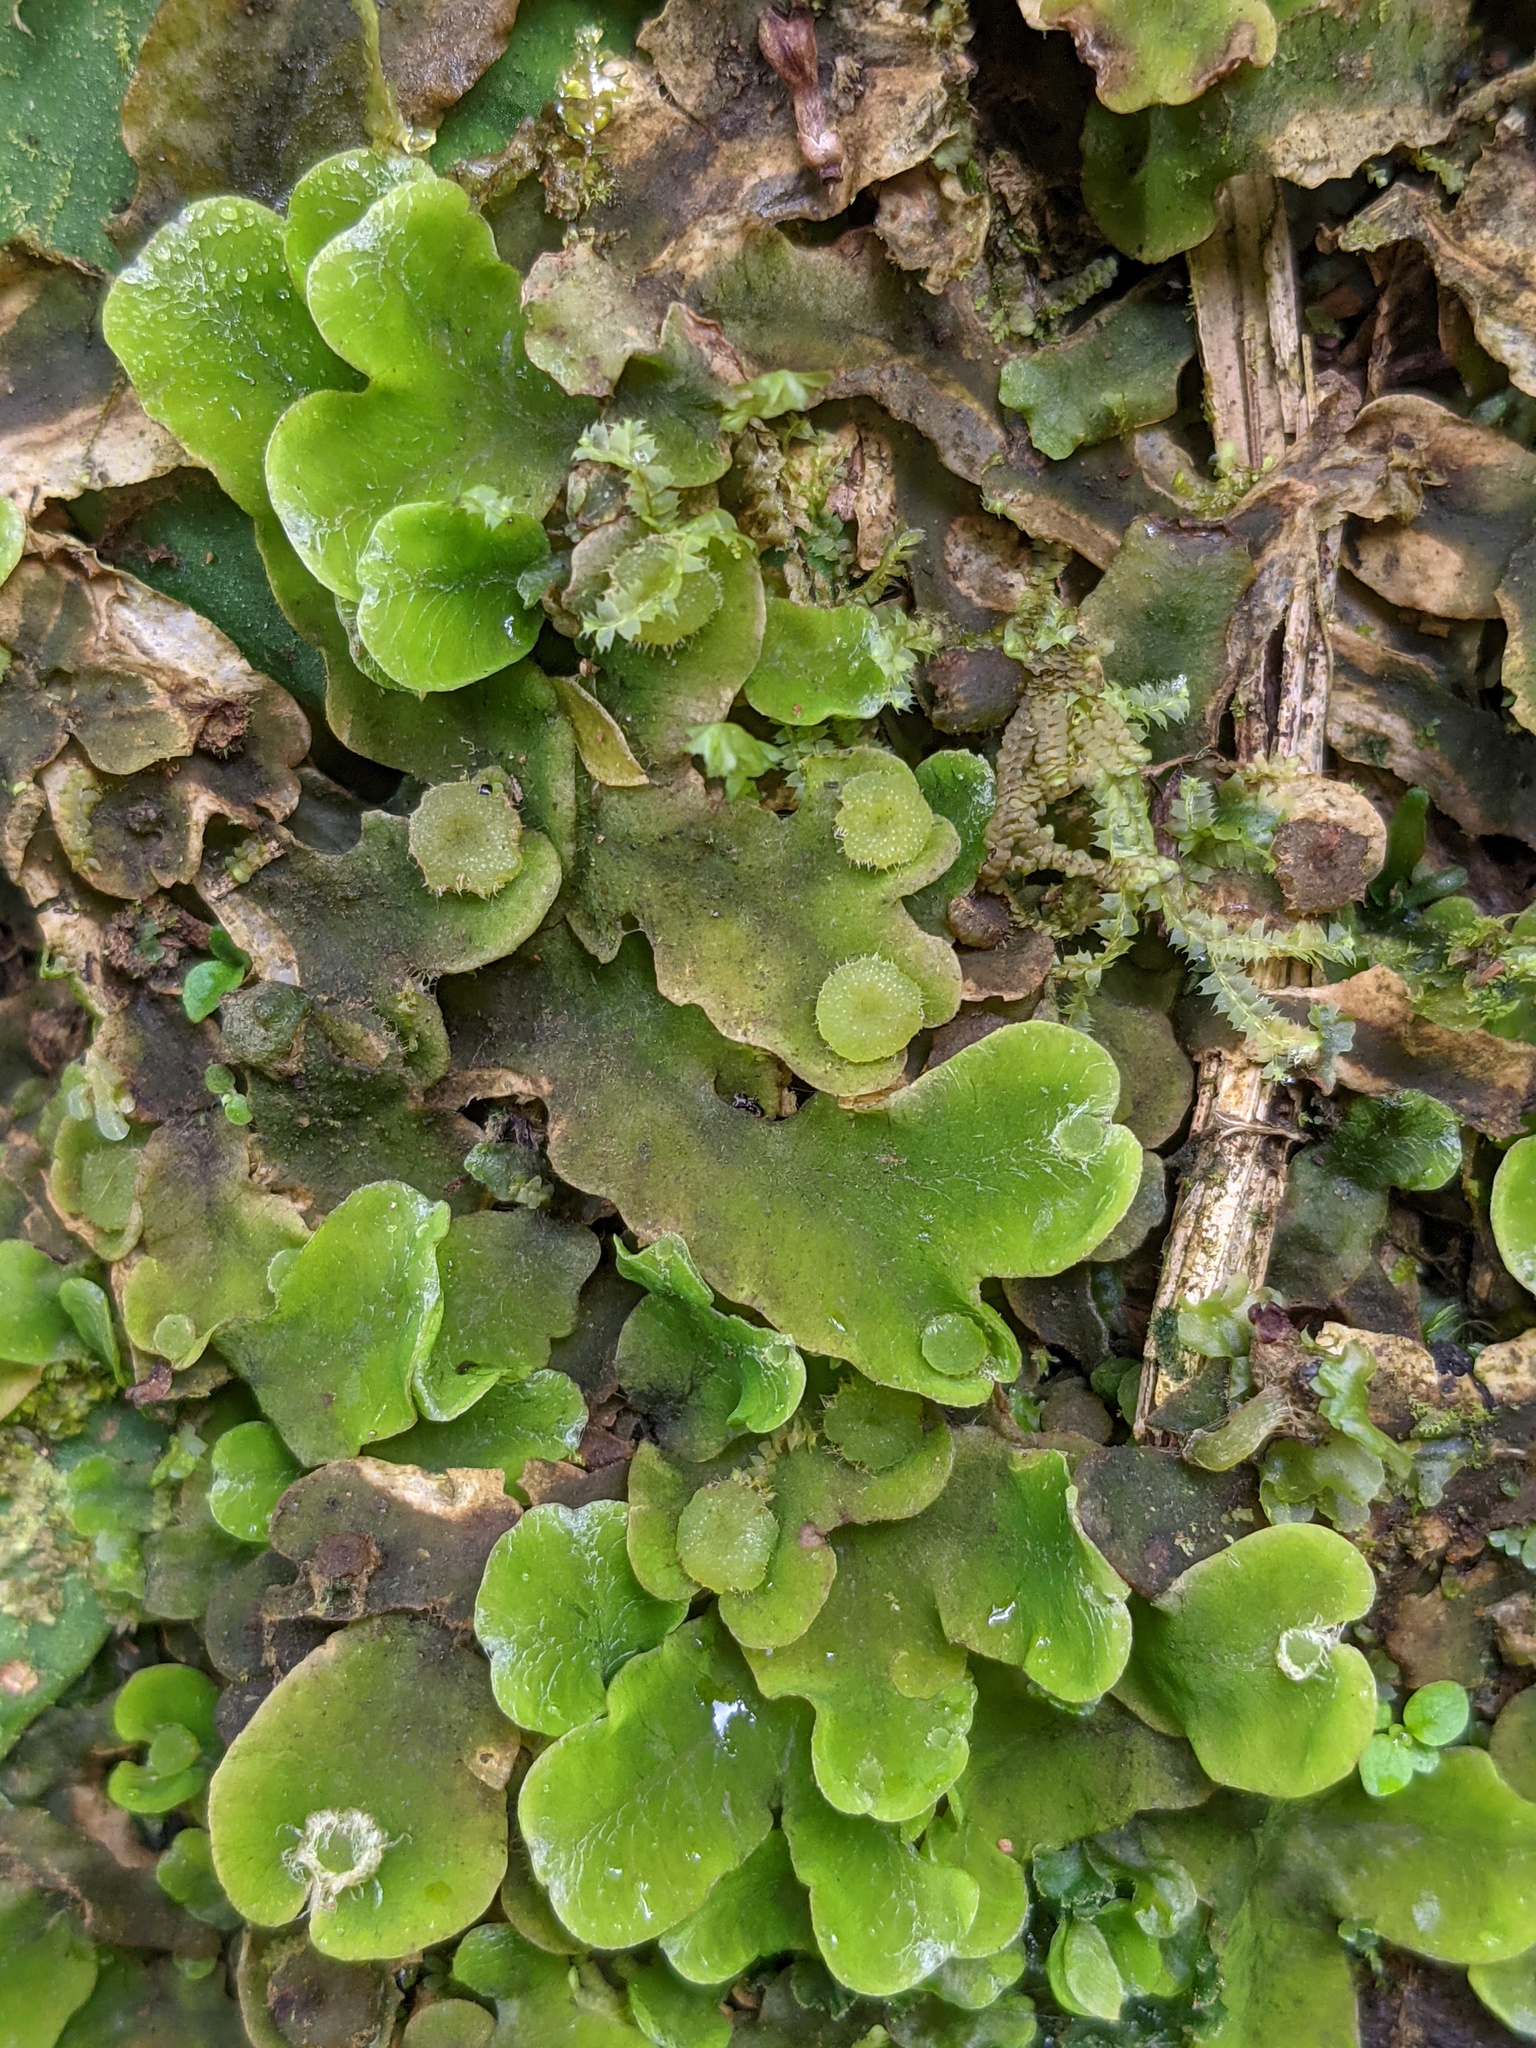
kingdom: Plantae
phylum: Marchantiophyta
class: Marchantiopsida
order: Marchantiales
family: Dumortieraceae
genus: Dumortiera
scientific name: Dumortiera hirsuta
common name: Dumortier's liverwort
